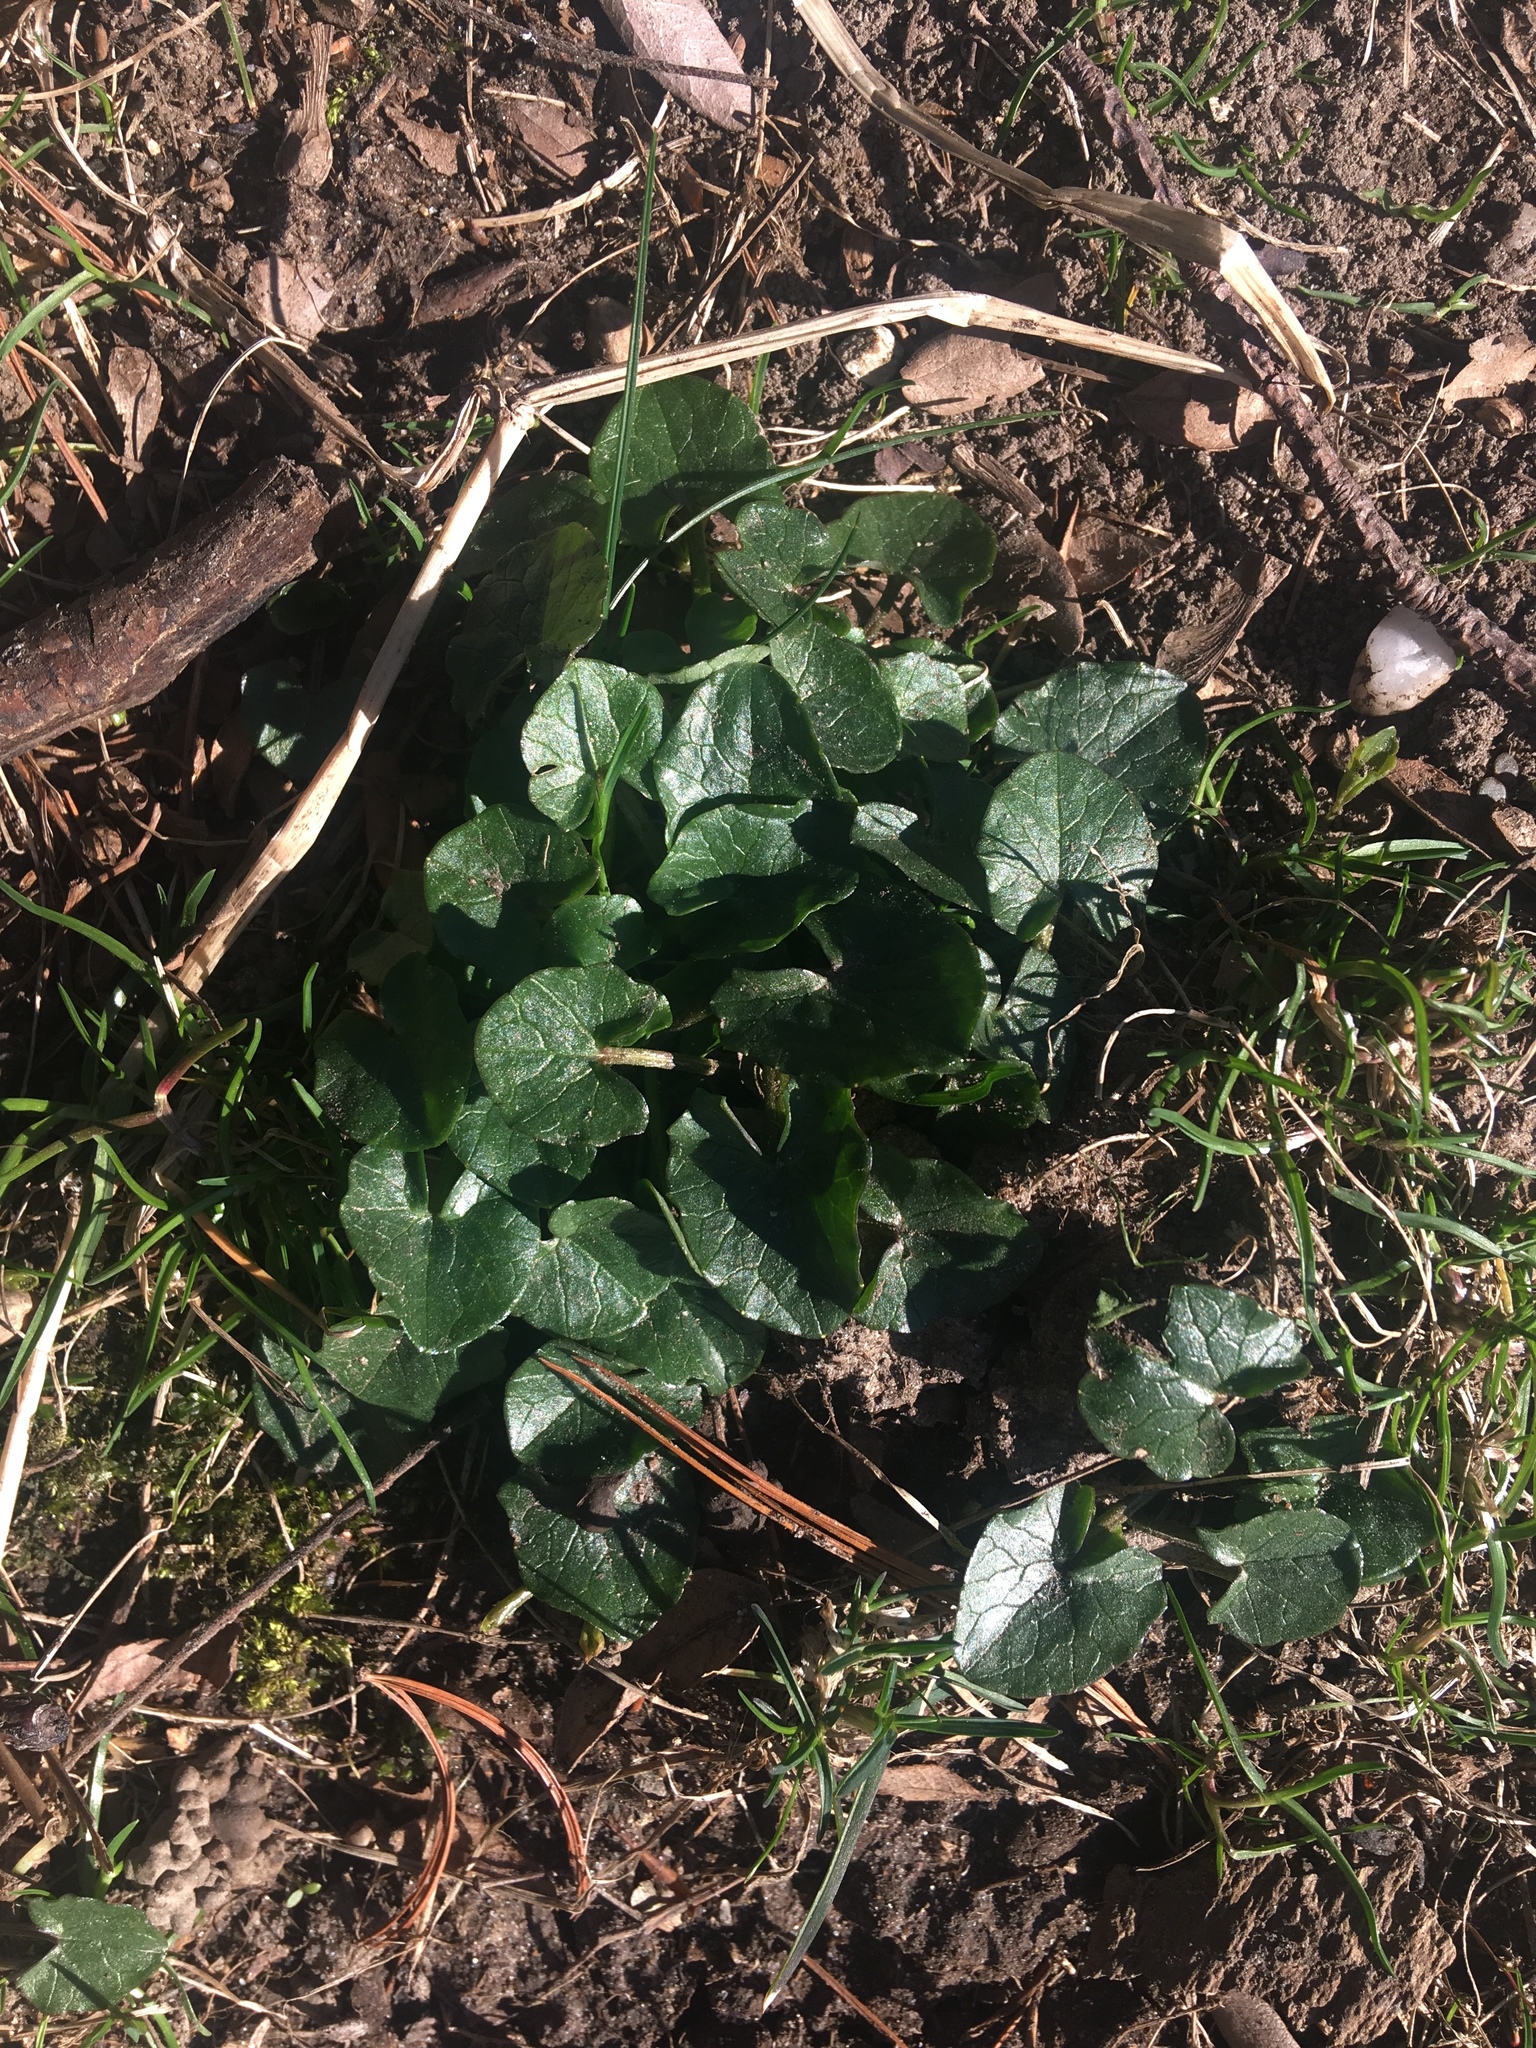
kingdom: Plantae
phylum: Tracheophyta
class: Magnoliopsida
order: Ranunculales
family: Ranunculaceae
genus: Ficaria
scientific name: Ficaria verna
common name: Lesser celandine
